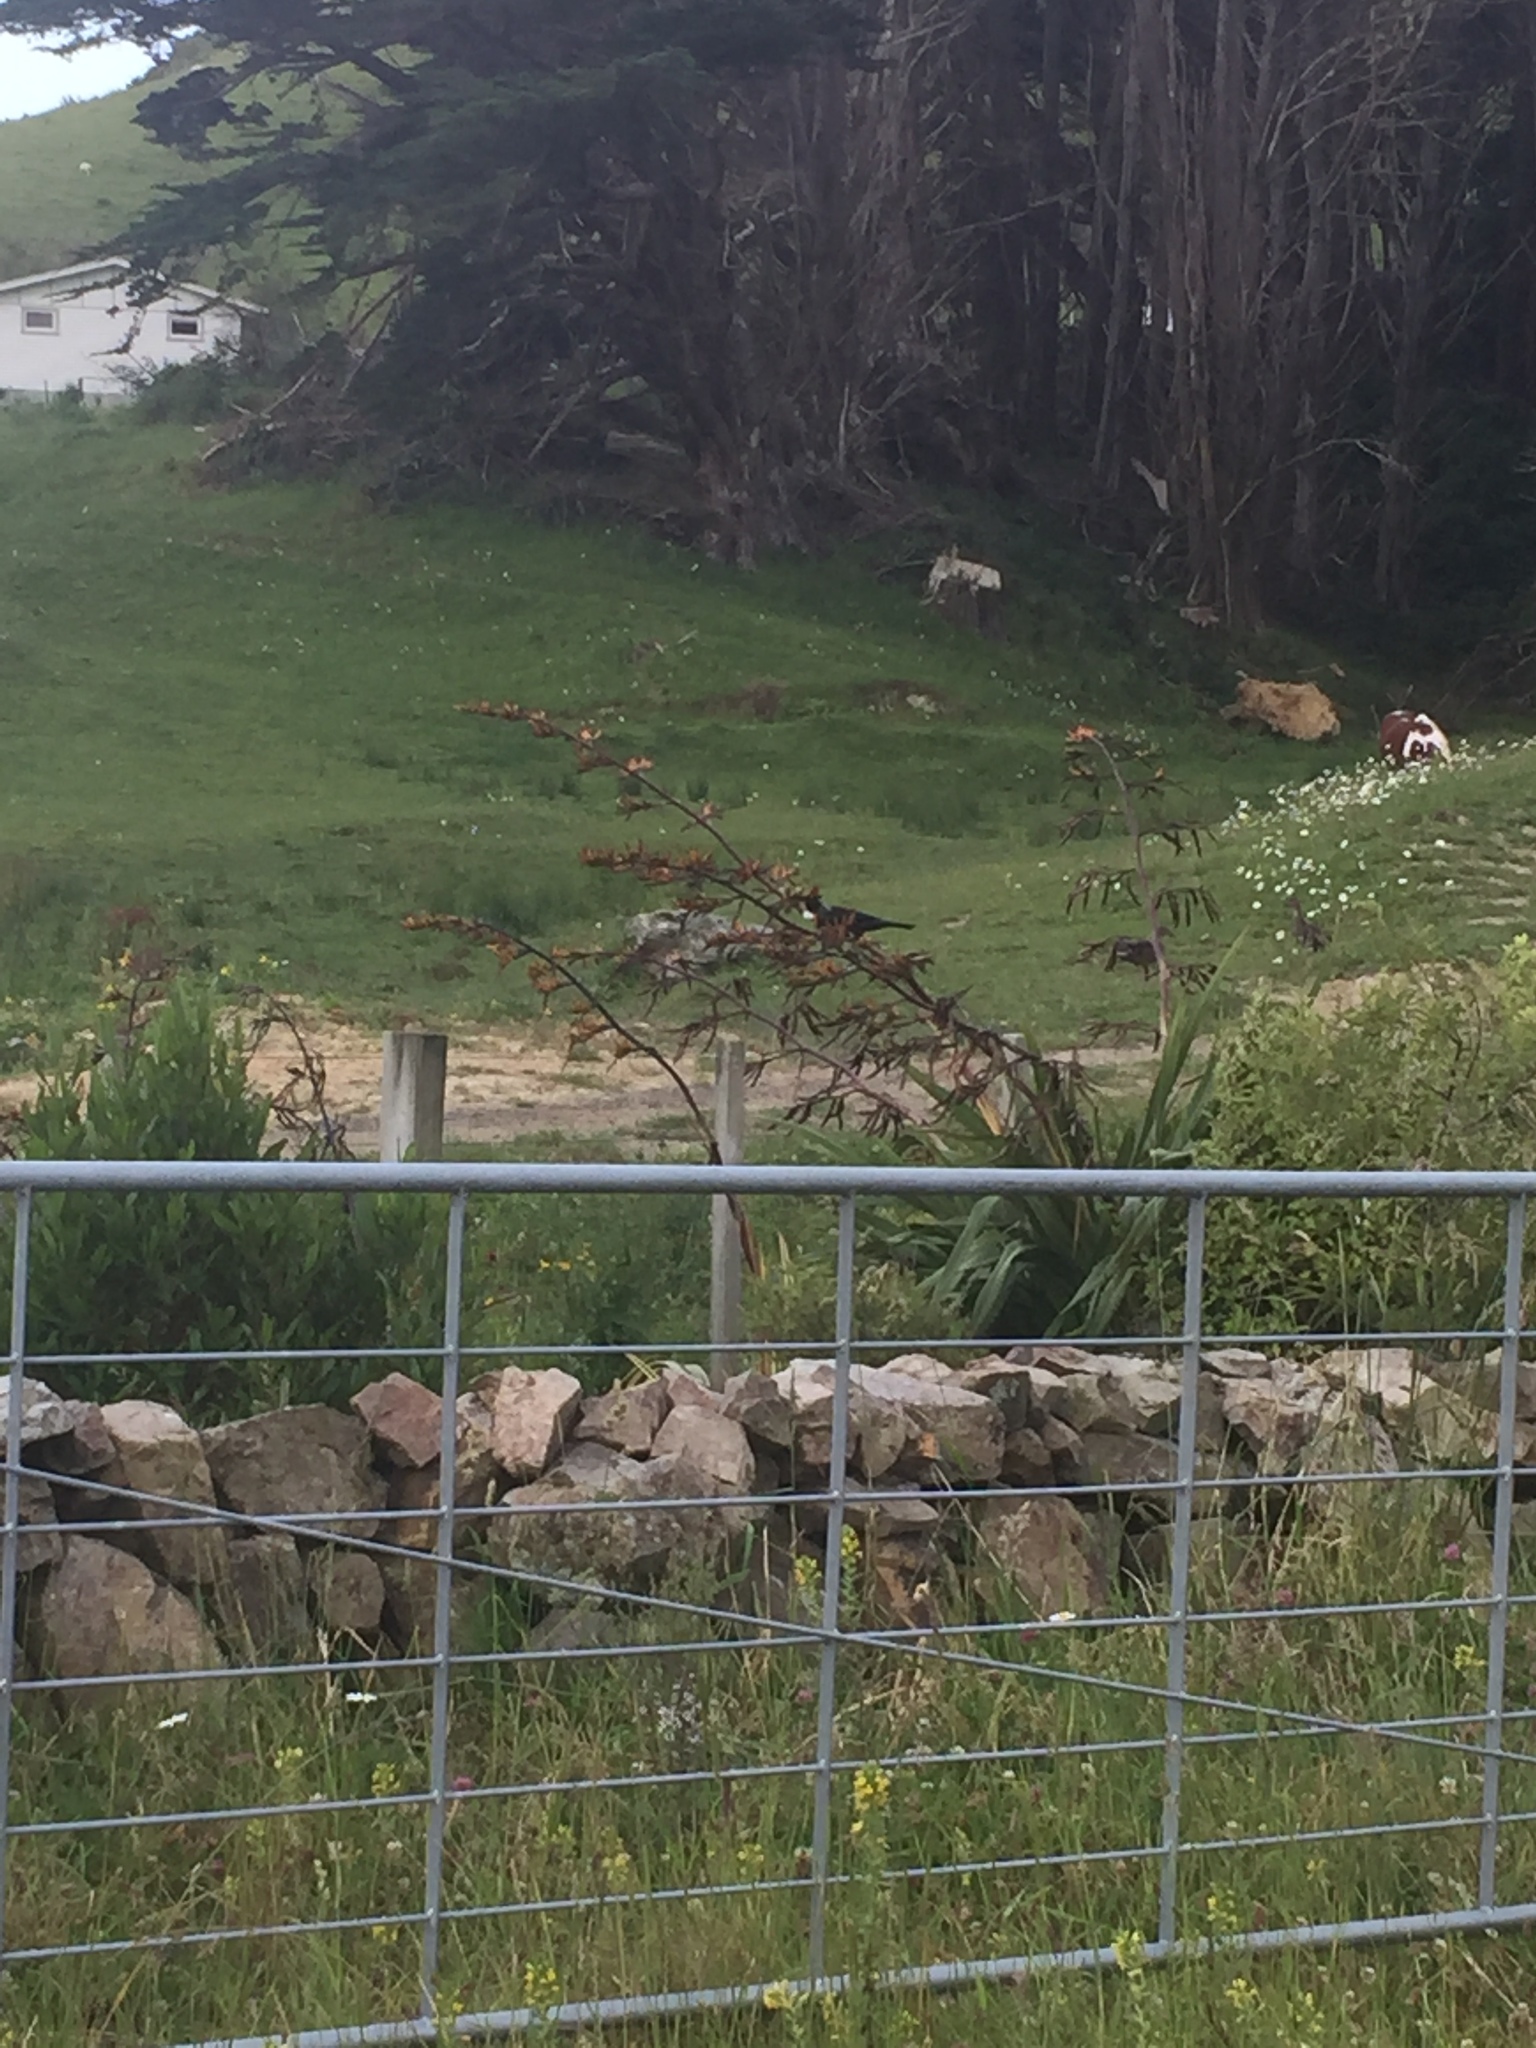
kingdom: Animalia
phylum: Chordata
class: Aves
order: Passeriformes
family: Meliphagidae
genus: Prosthemadera
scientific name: Prosthemadera novaeseelandiae
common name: Tui
